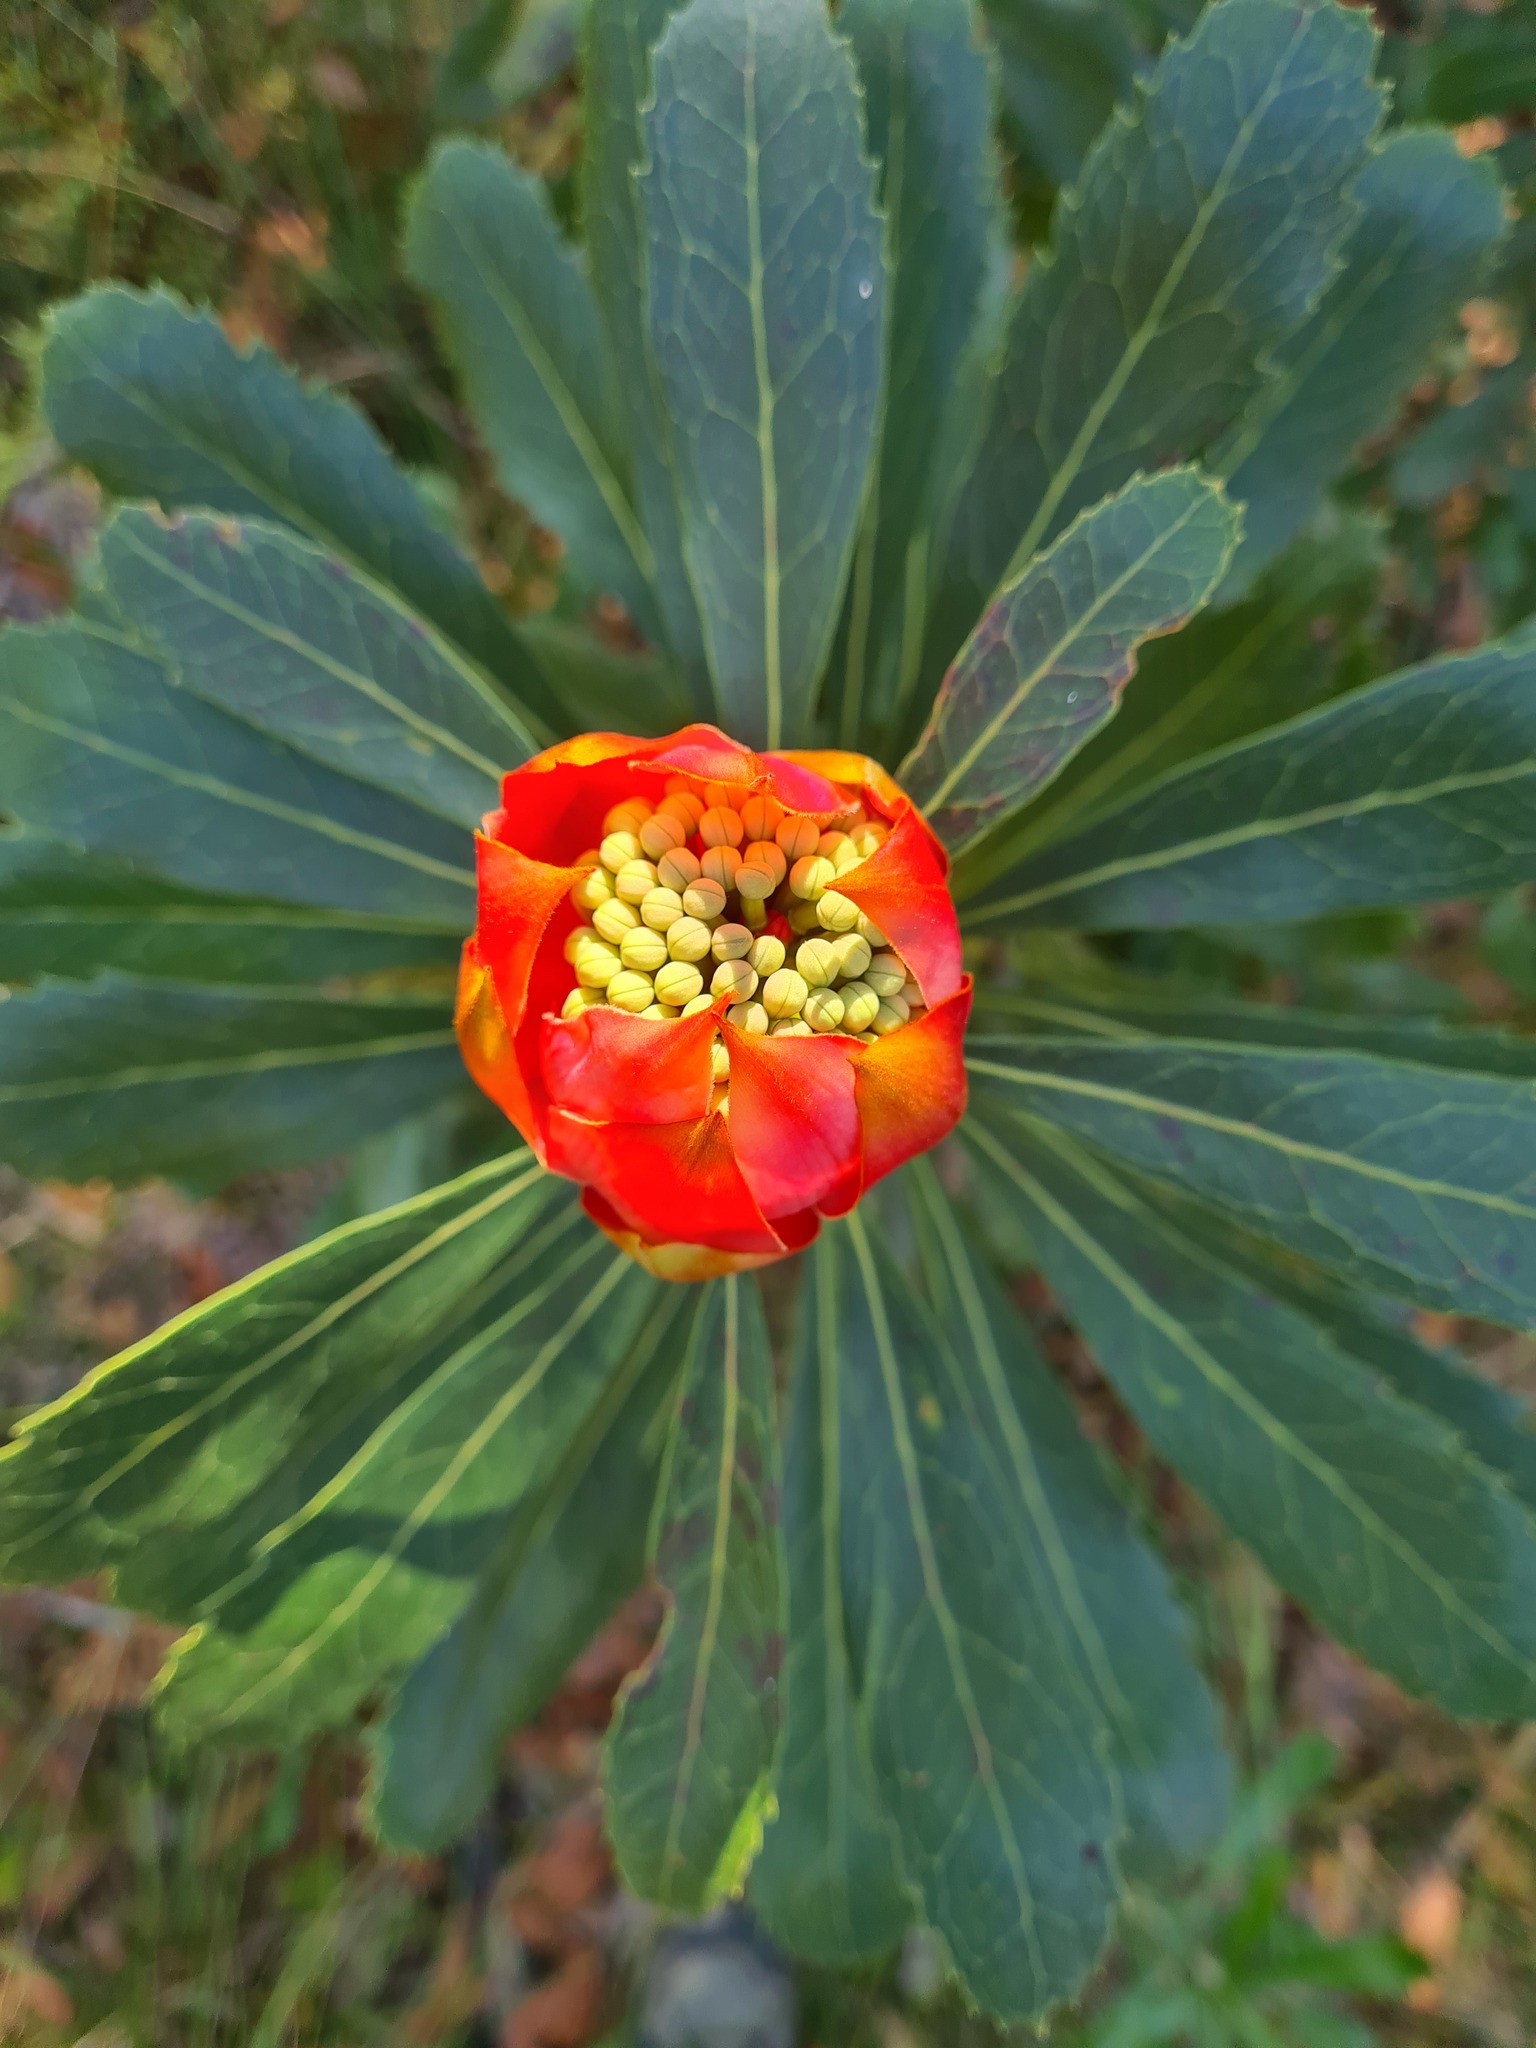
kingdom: Plantae
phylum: Tracheophyta
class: Magnoliopsida
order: Proteales
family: Proteaceae
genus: Telopea
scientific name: Telopea speciosissima
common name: New south wales waratah
